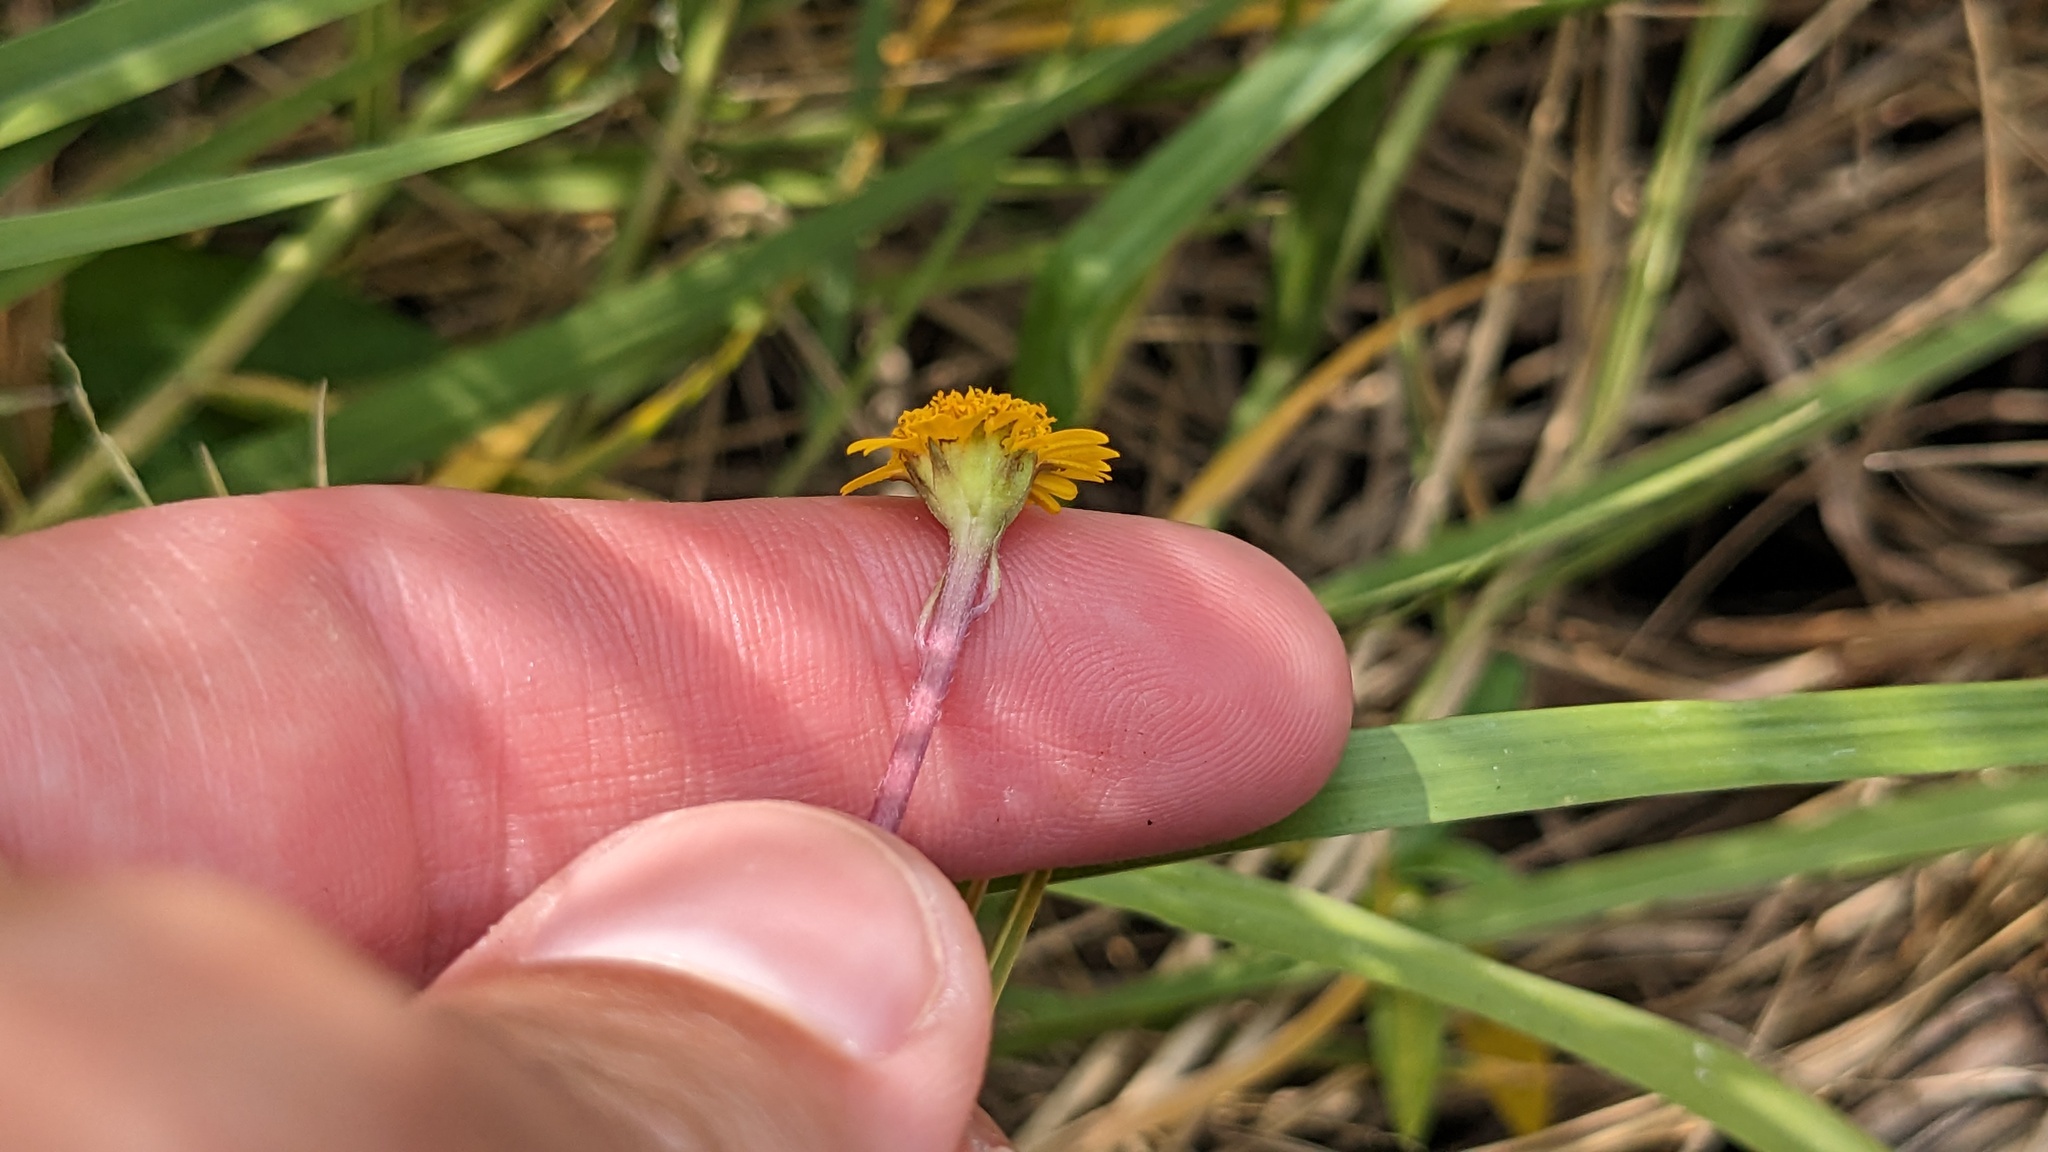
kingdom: Plantae
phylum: Tracheophyta
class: Magnoliopsida
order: Asterales
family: Asteraceae
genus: Acmella
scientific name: Acmella repens
